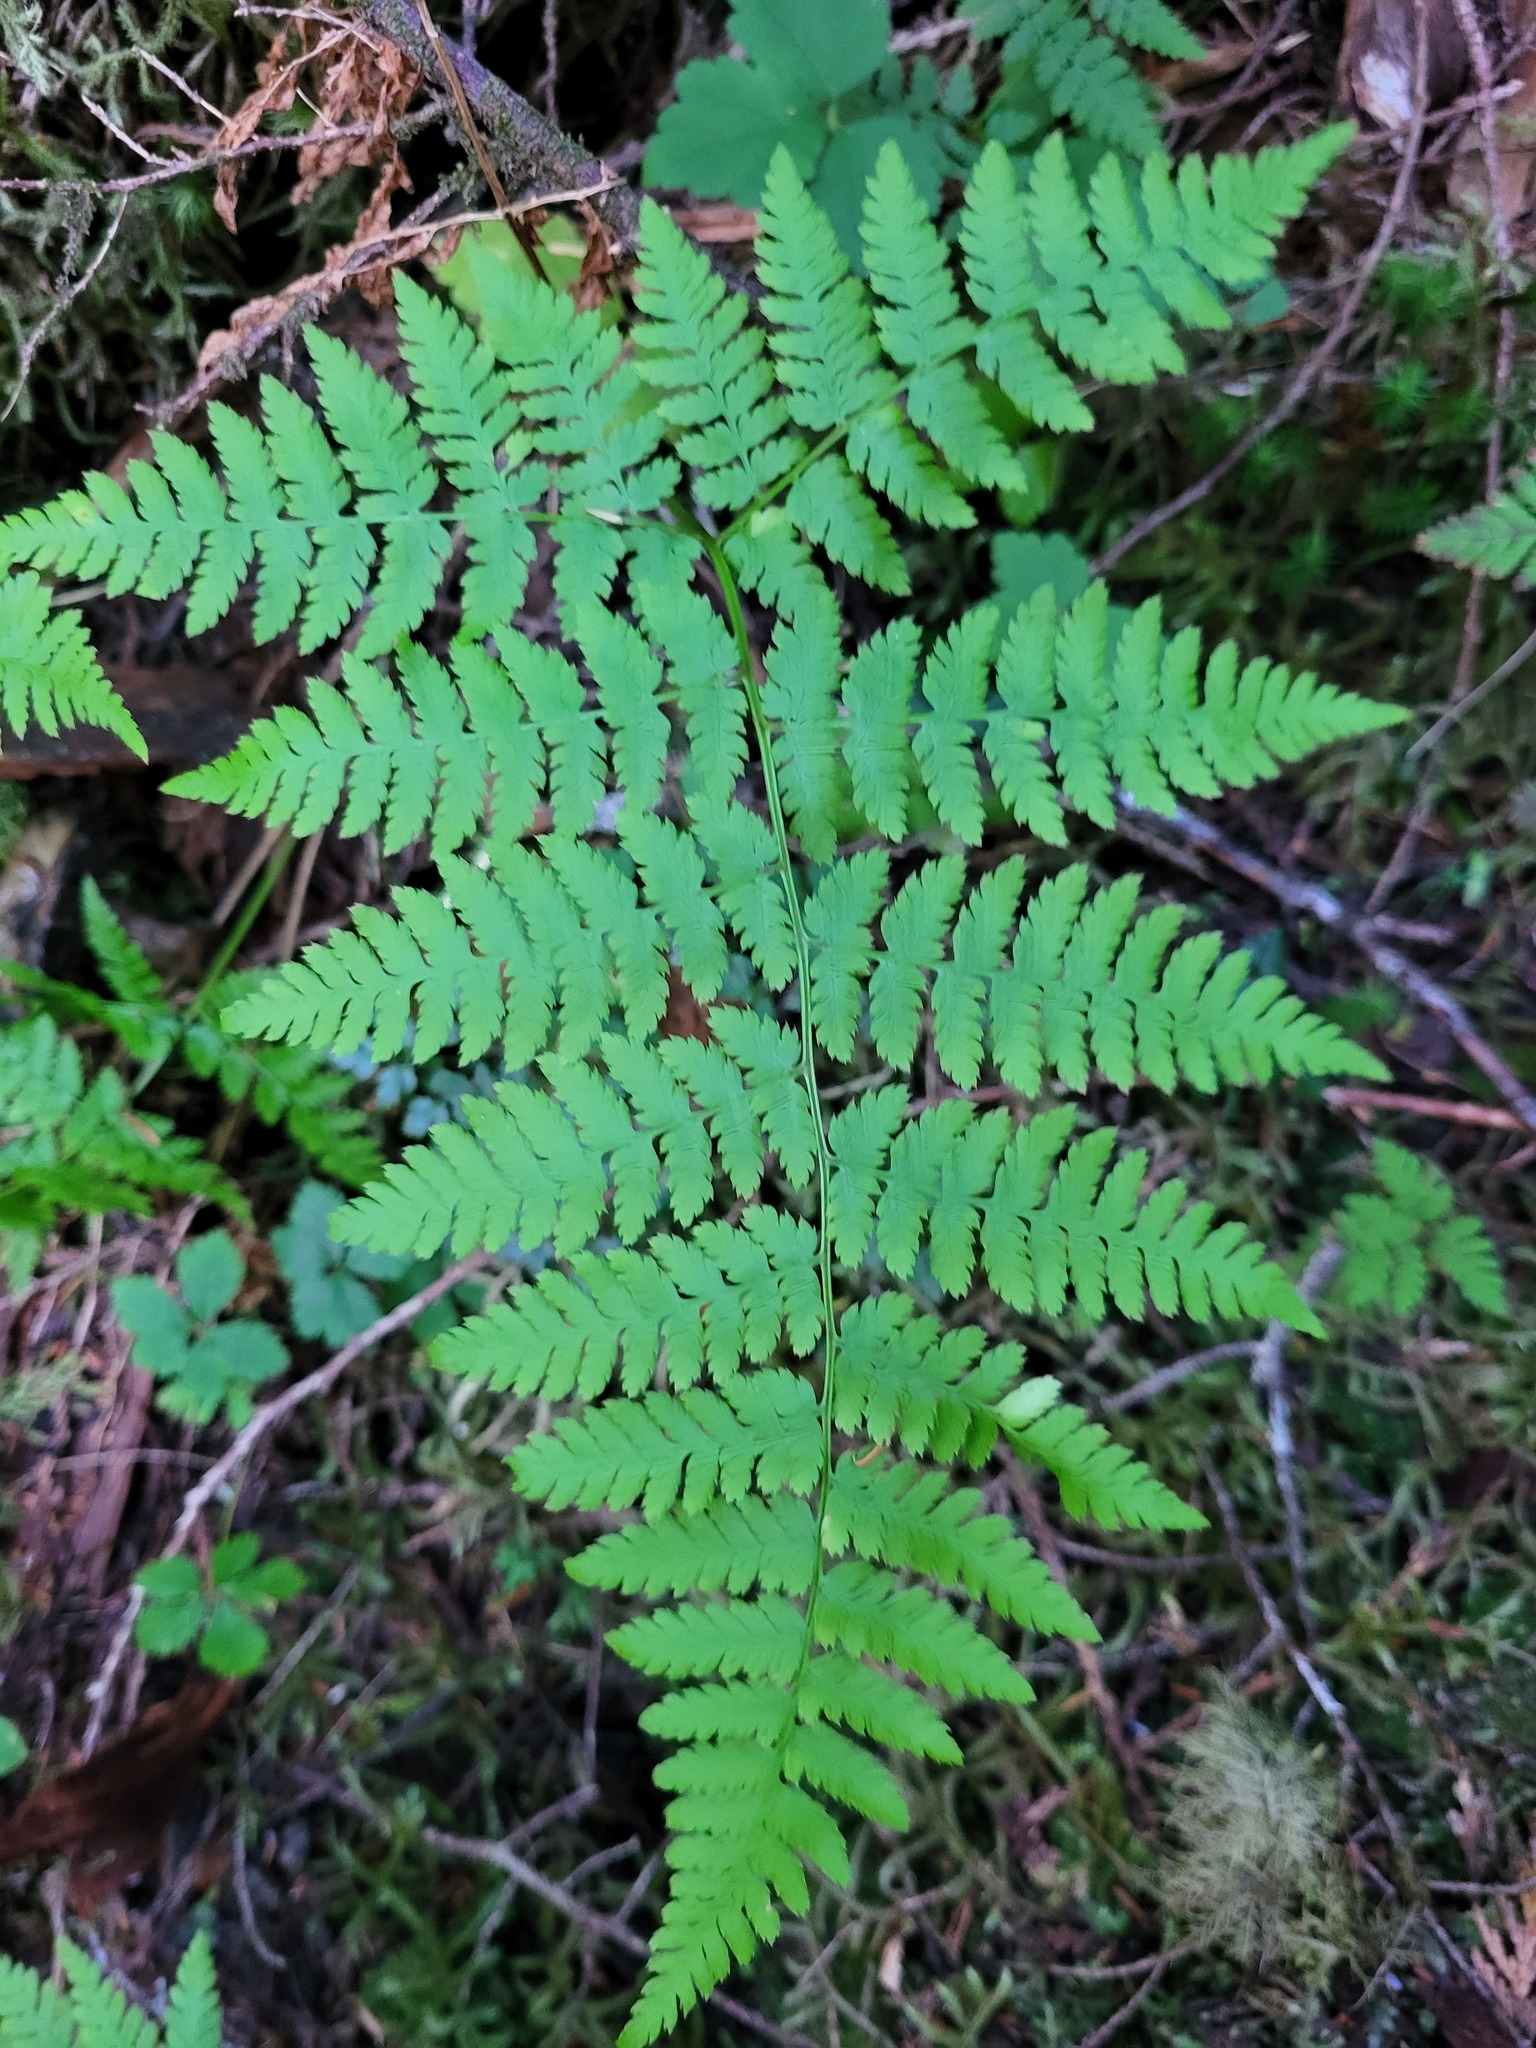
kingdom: Plantae
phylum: Tracheophyta
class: Polypodiopsida
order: Polypodiales
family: Dryopteridaceae
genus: Dryopteris
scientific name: Dryopteris expansa
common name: Northern buckler fern
